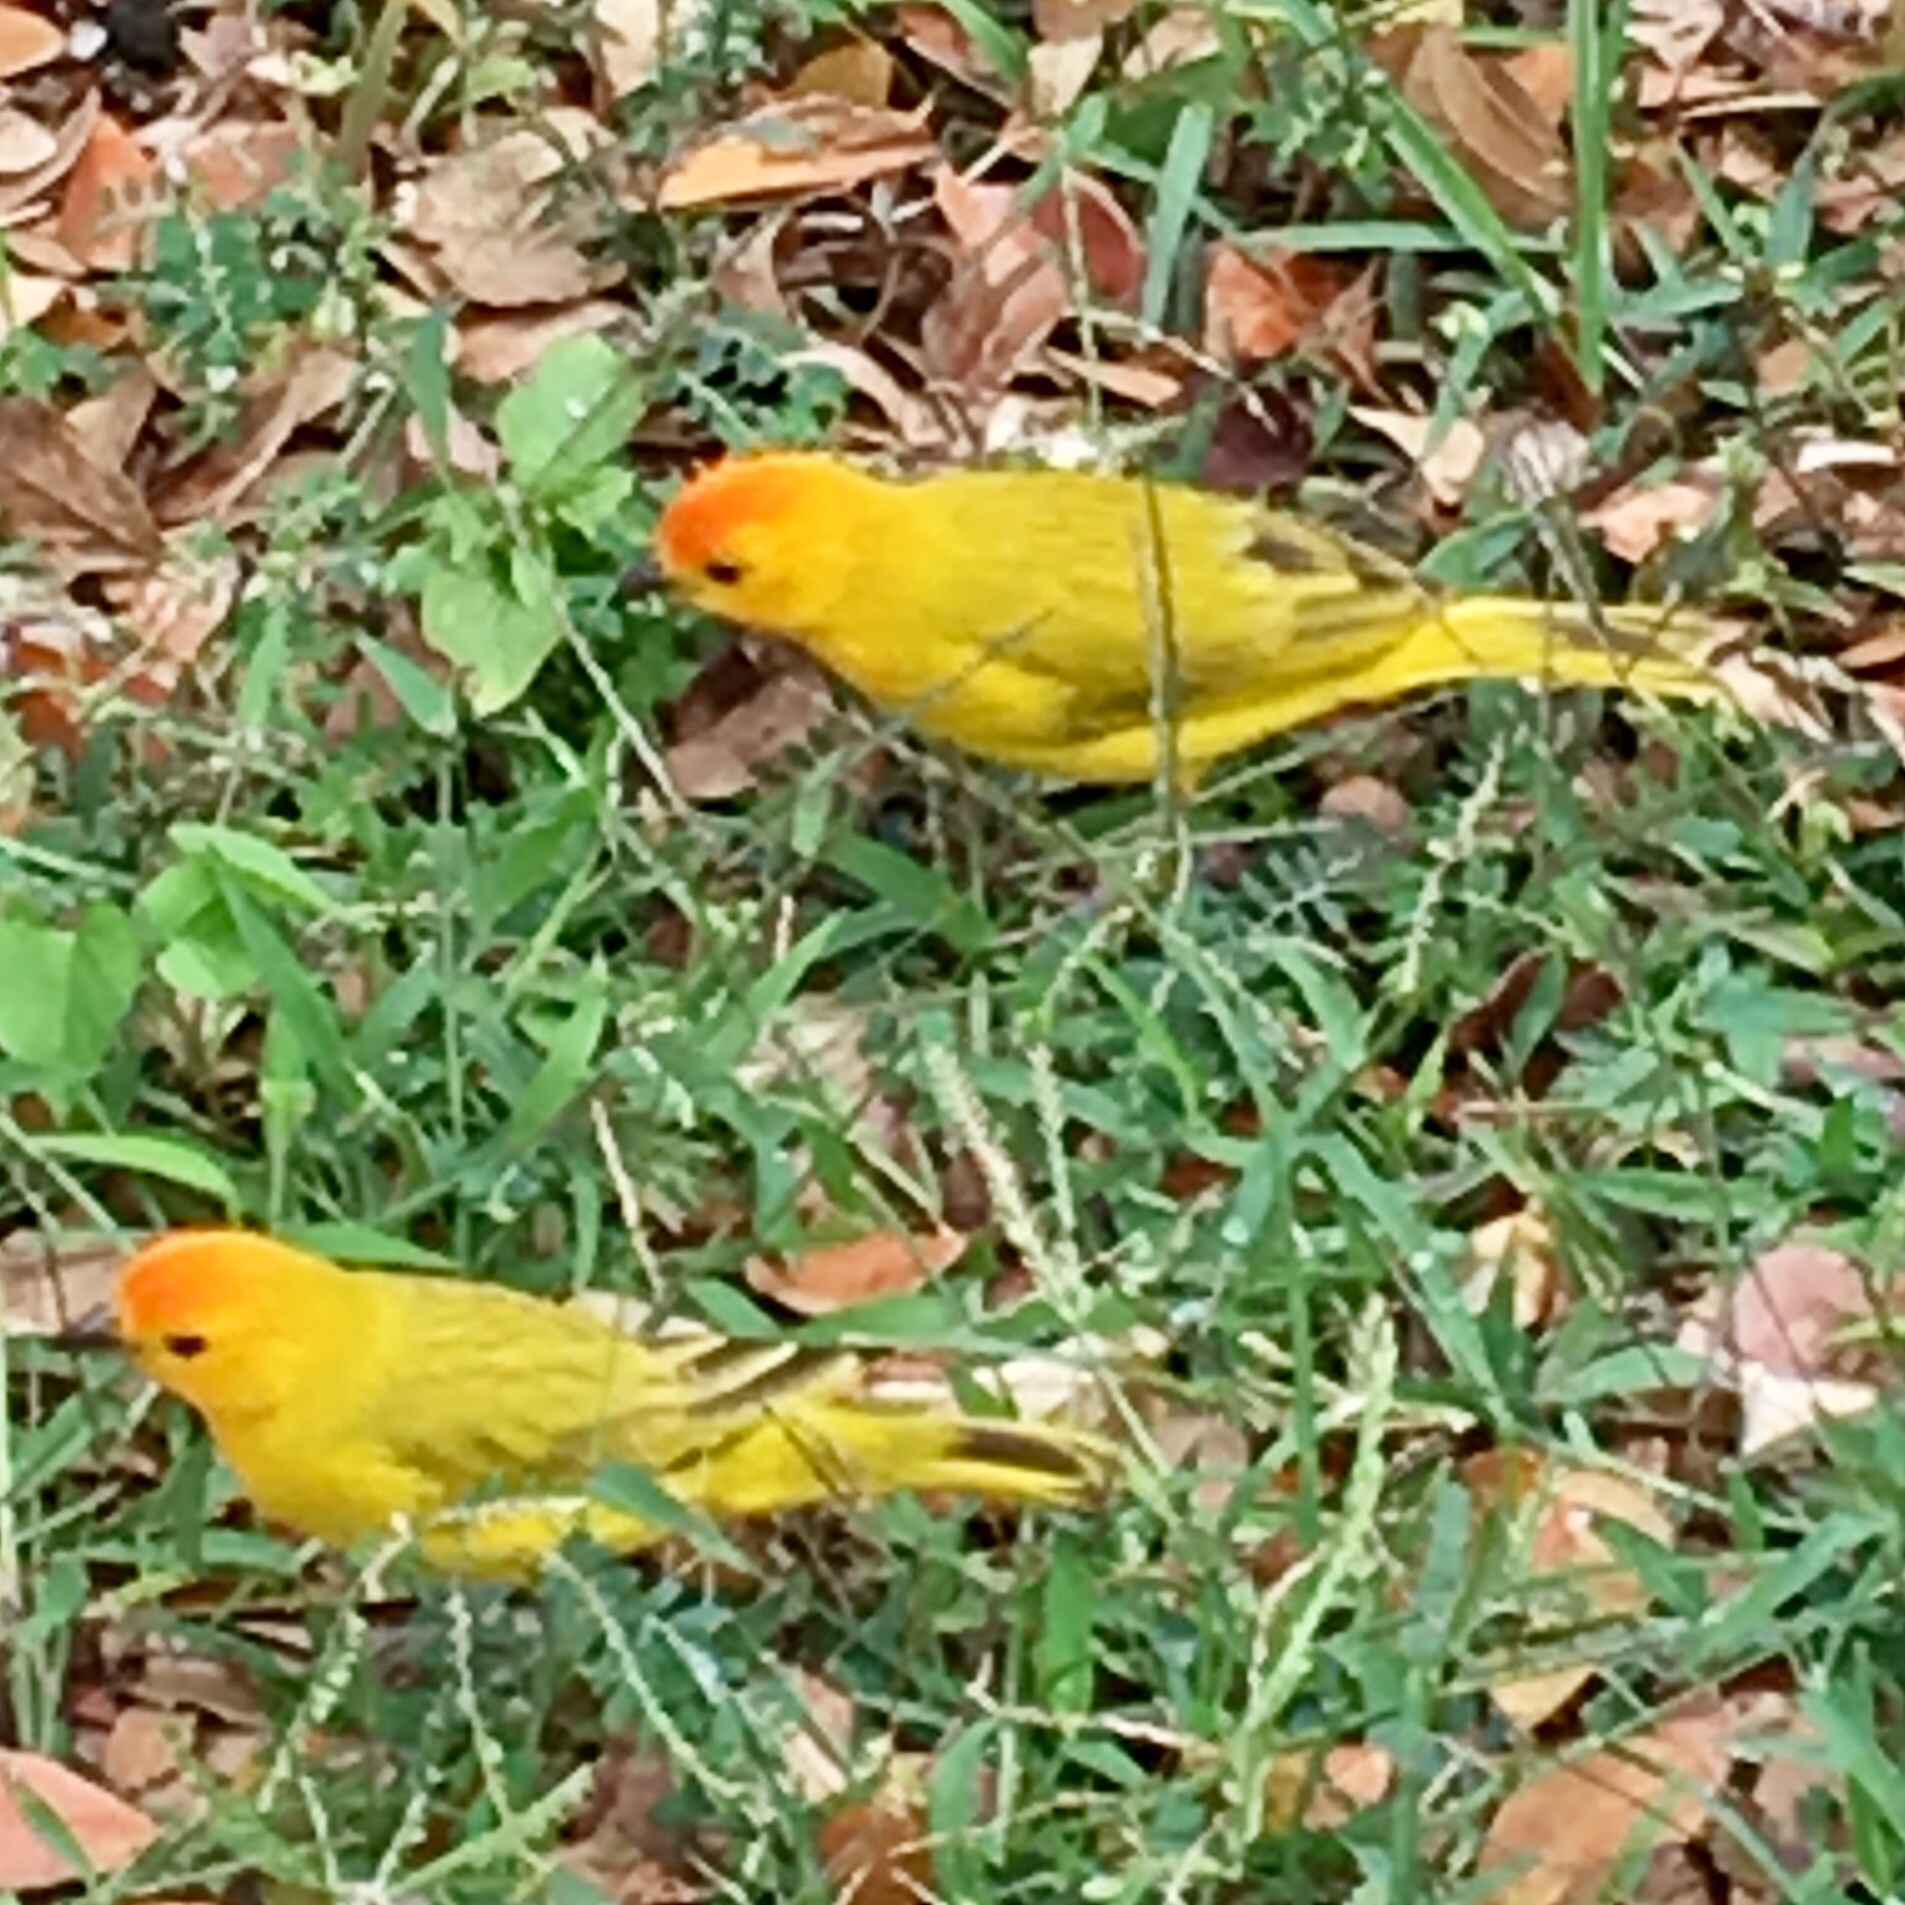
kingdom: Animalia
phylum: Chordata
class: Aves
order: Passeriformes
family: Thraupidae
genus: Sicalis
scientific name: Sicalis flaveola
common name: Saffron finch
